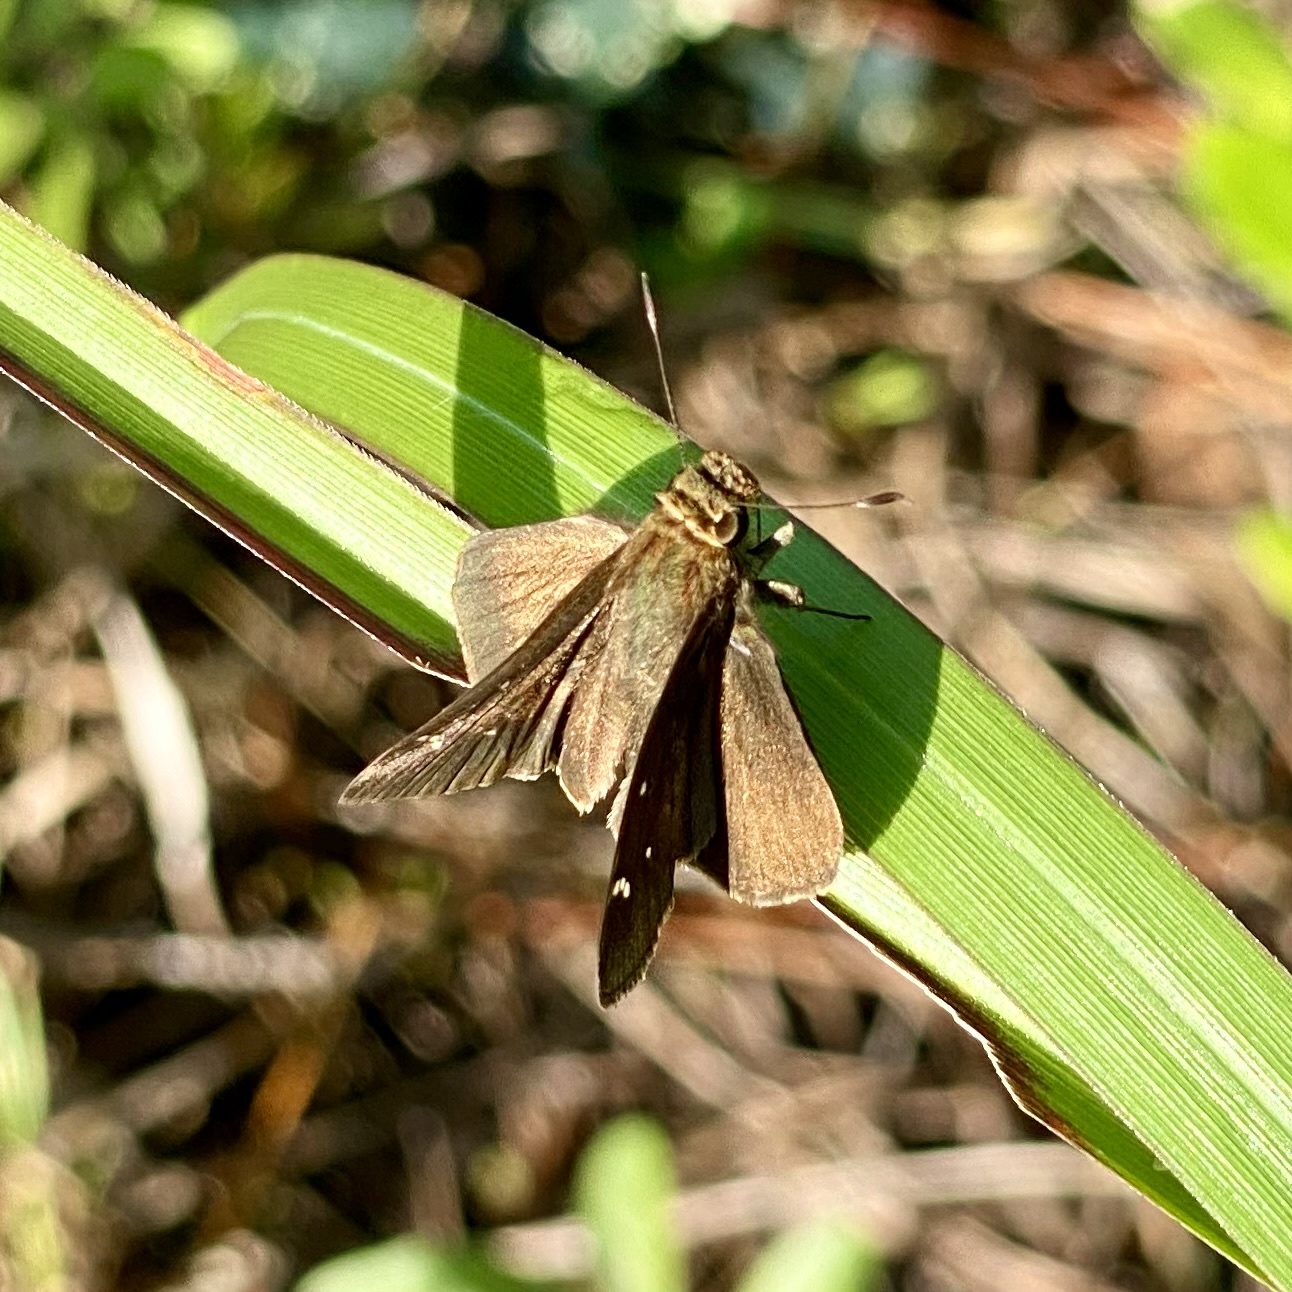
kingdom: Animalia
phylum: Arthropoda
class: Insecta
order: Lepidoptera
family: Hesperiidae
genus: Lerema
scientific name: Lerema accius
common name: Clouded skipper
